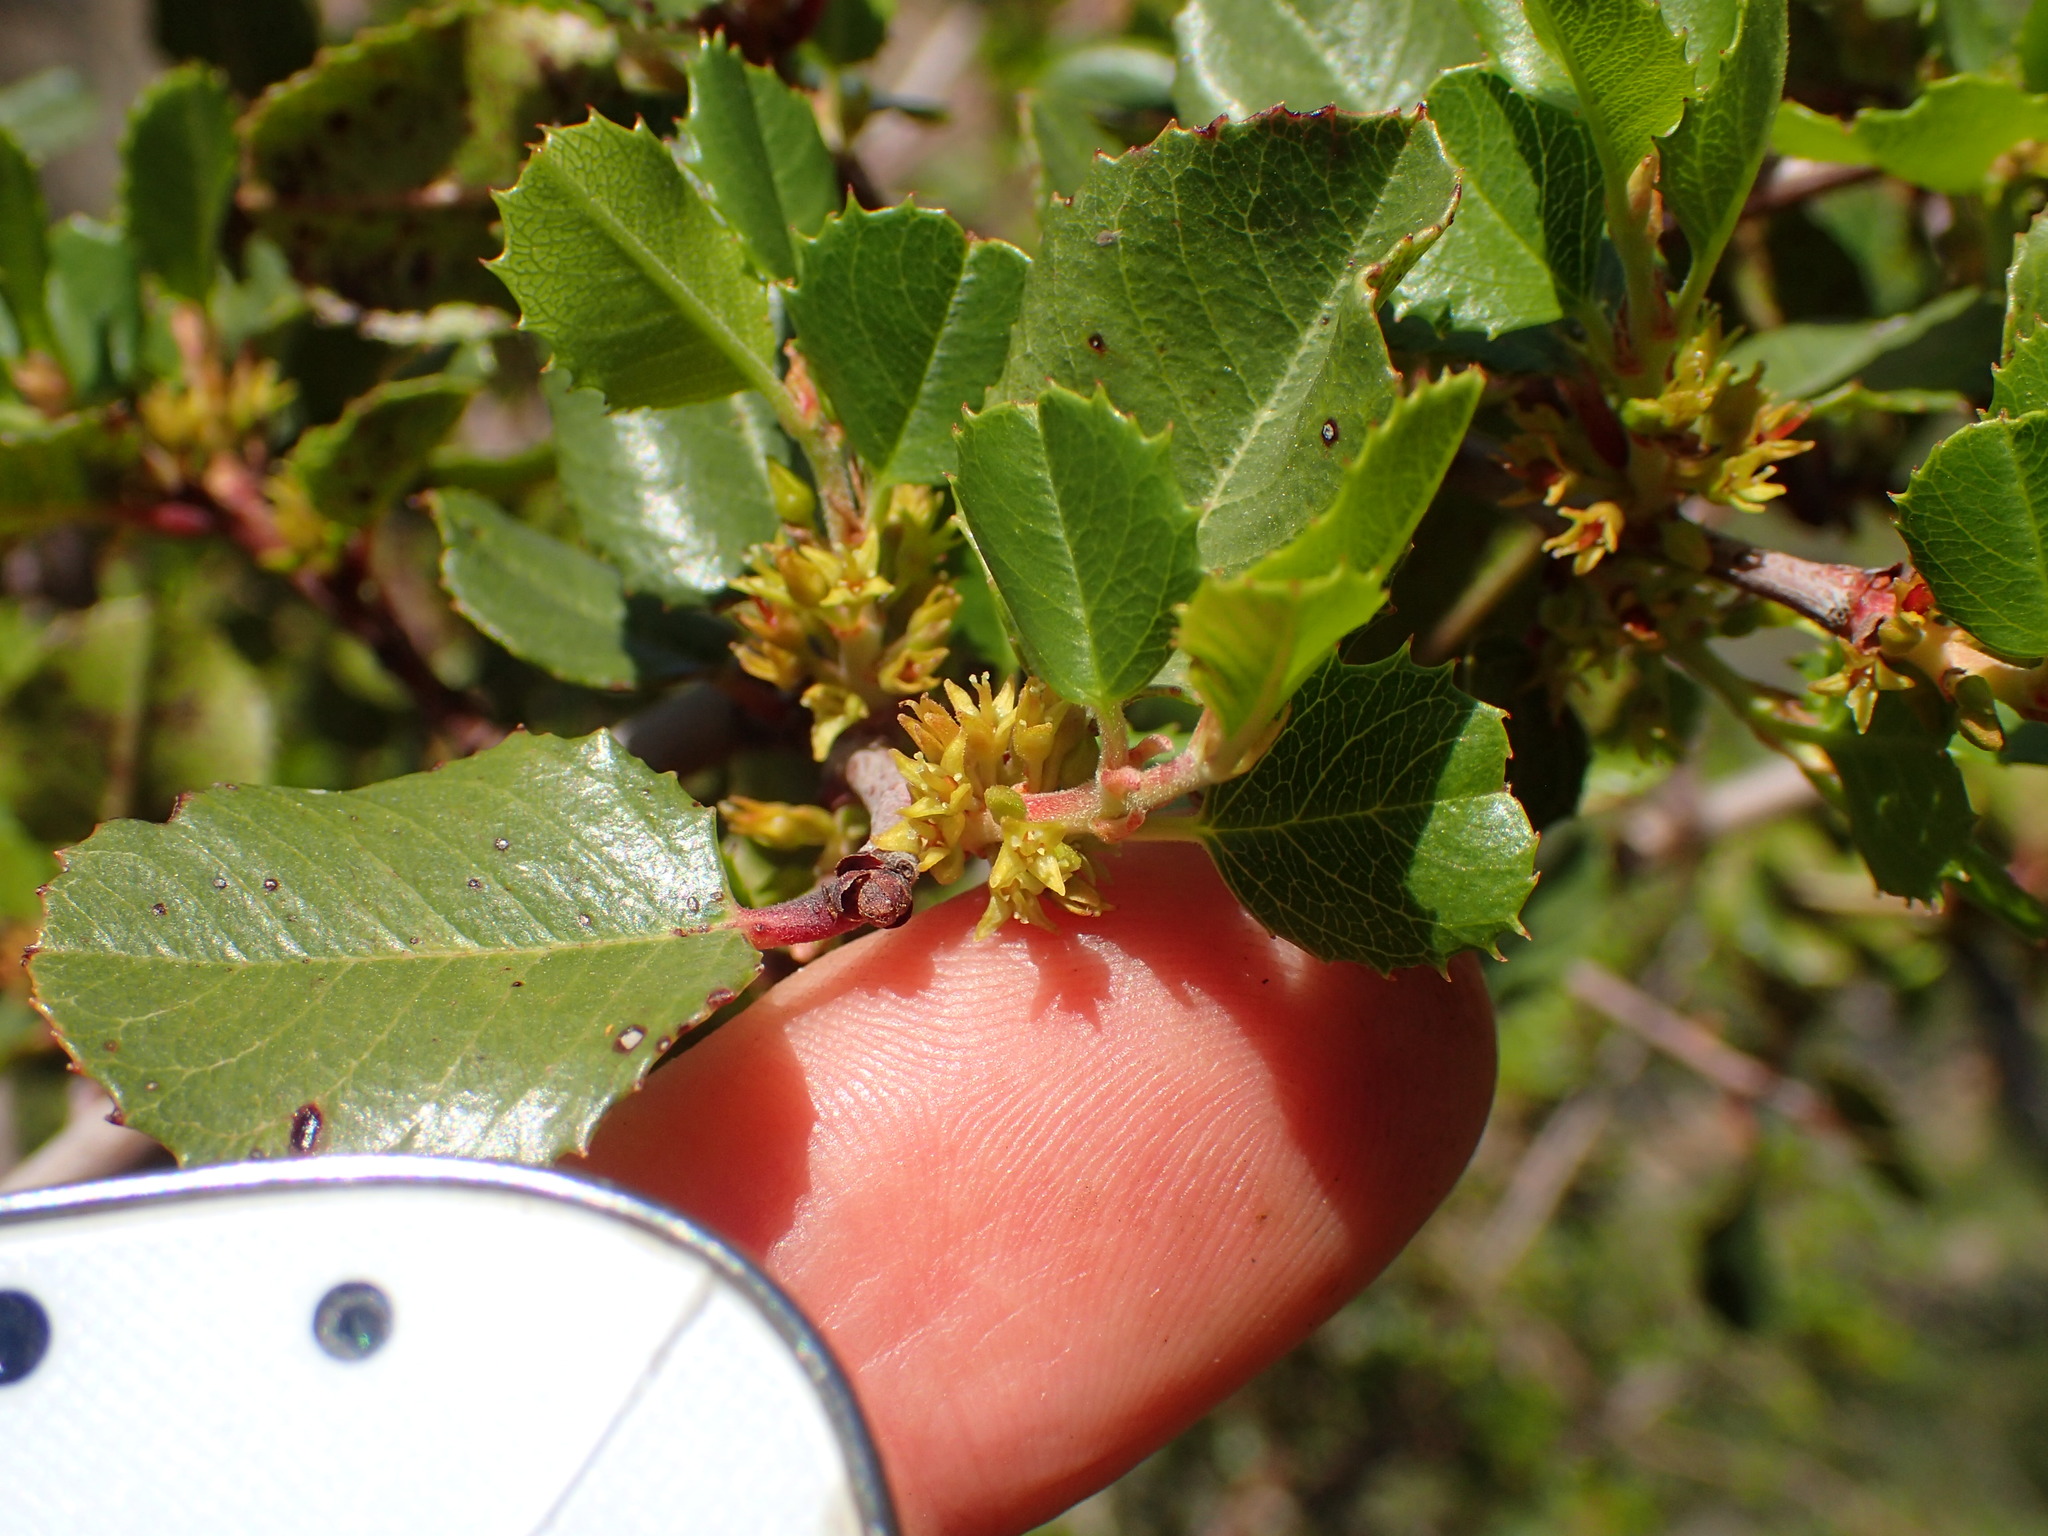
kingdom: Plantae
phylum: Tracheophyta
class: Magnoliopsida
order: Rosales
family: Rhamnaceae
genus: Endotropis
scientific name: Endotropis crocea
